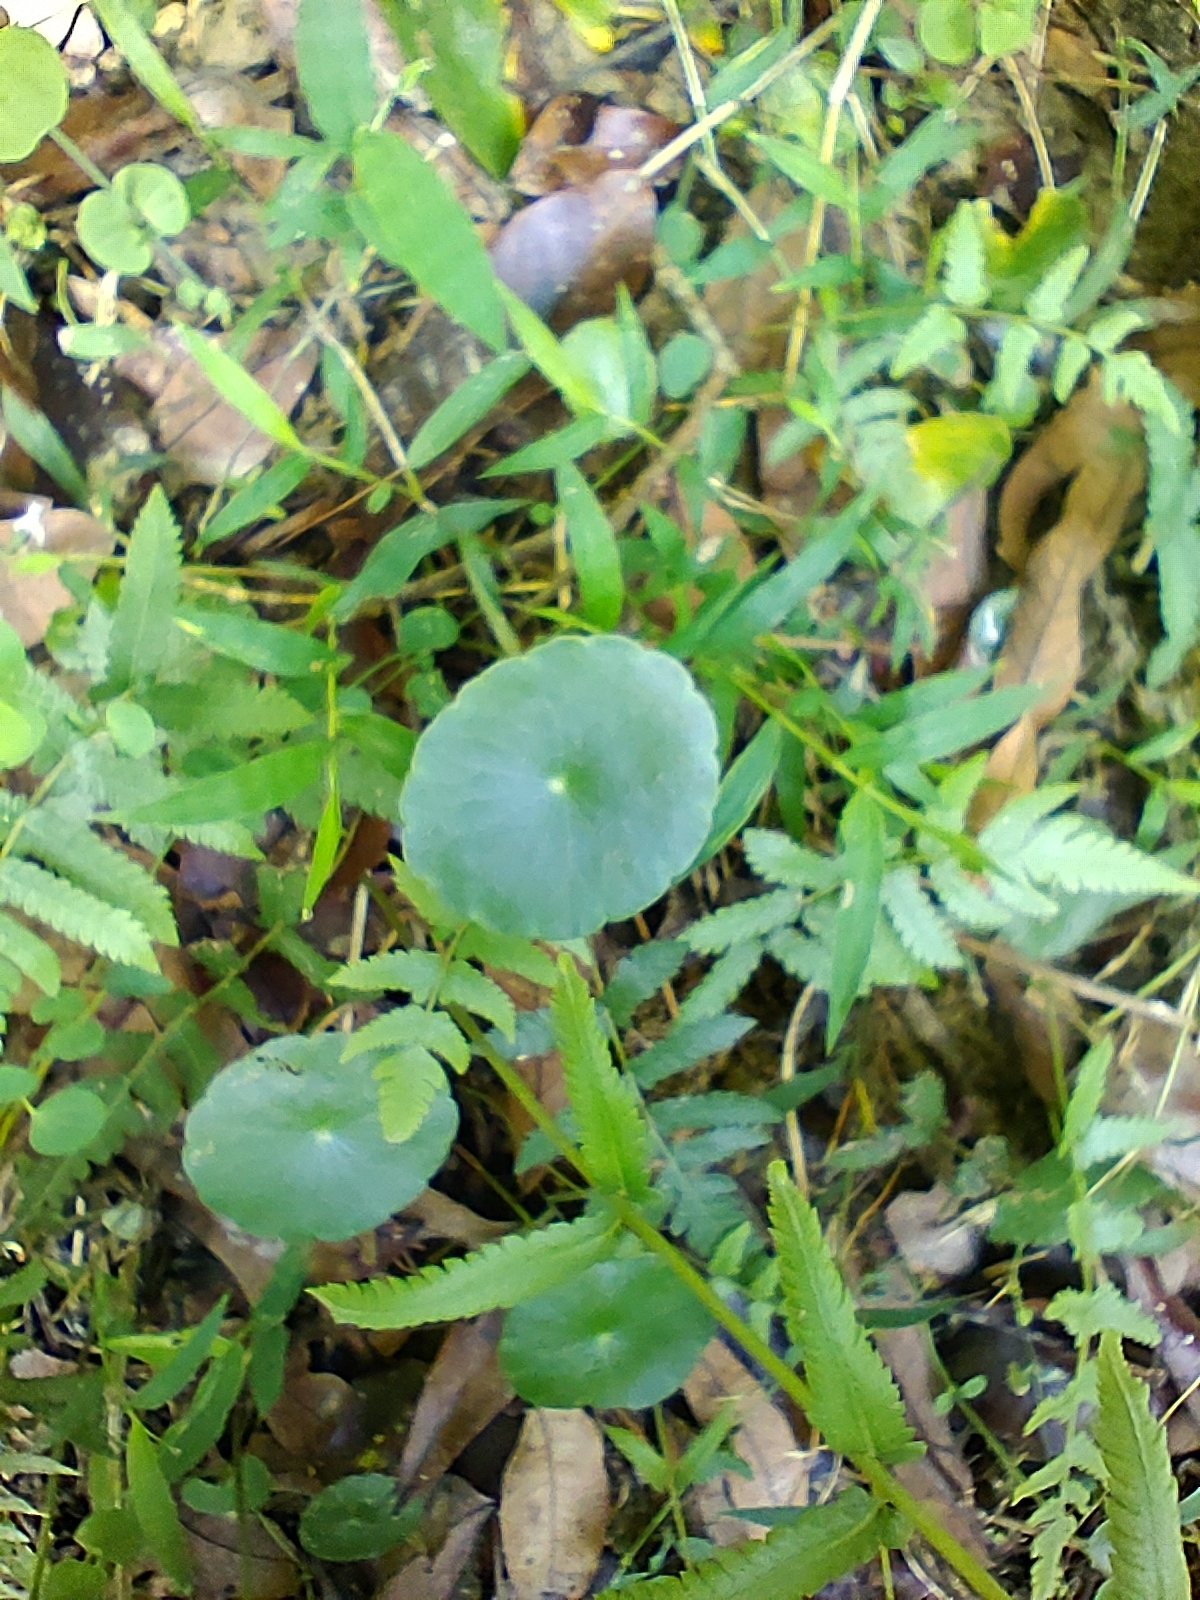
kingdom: Plantae
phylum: Tracheophyta
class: Magnoliopsida
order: Apiales
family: Araliaceae
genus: Hydrocotyle
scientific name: Hydrocotyle verticillata
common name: Whorled marshpennywort
